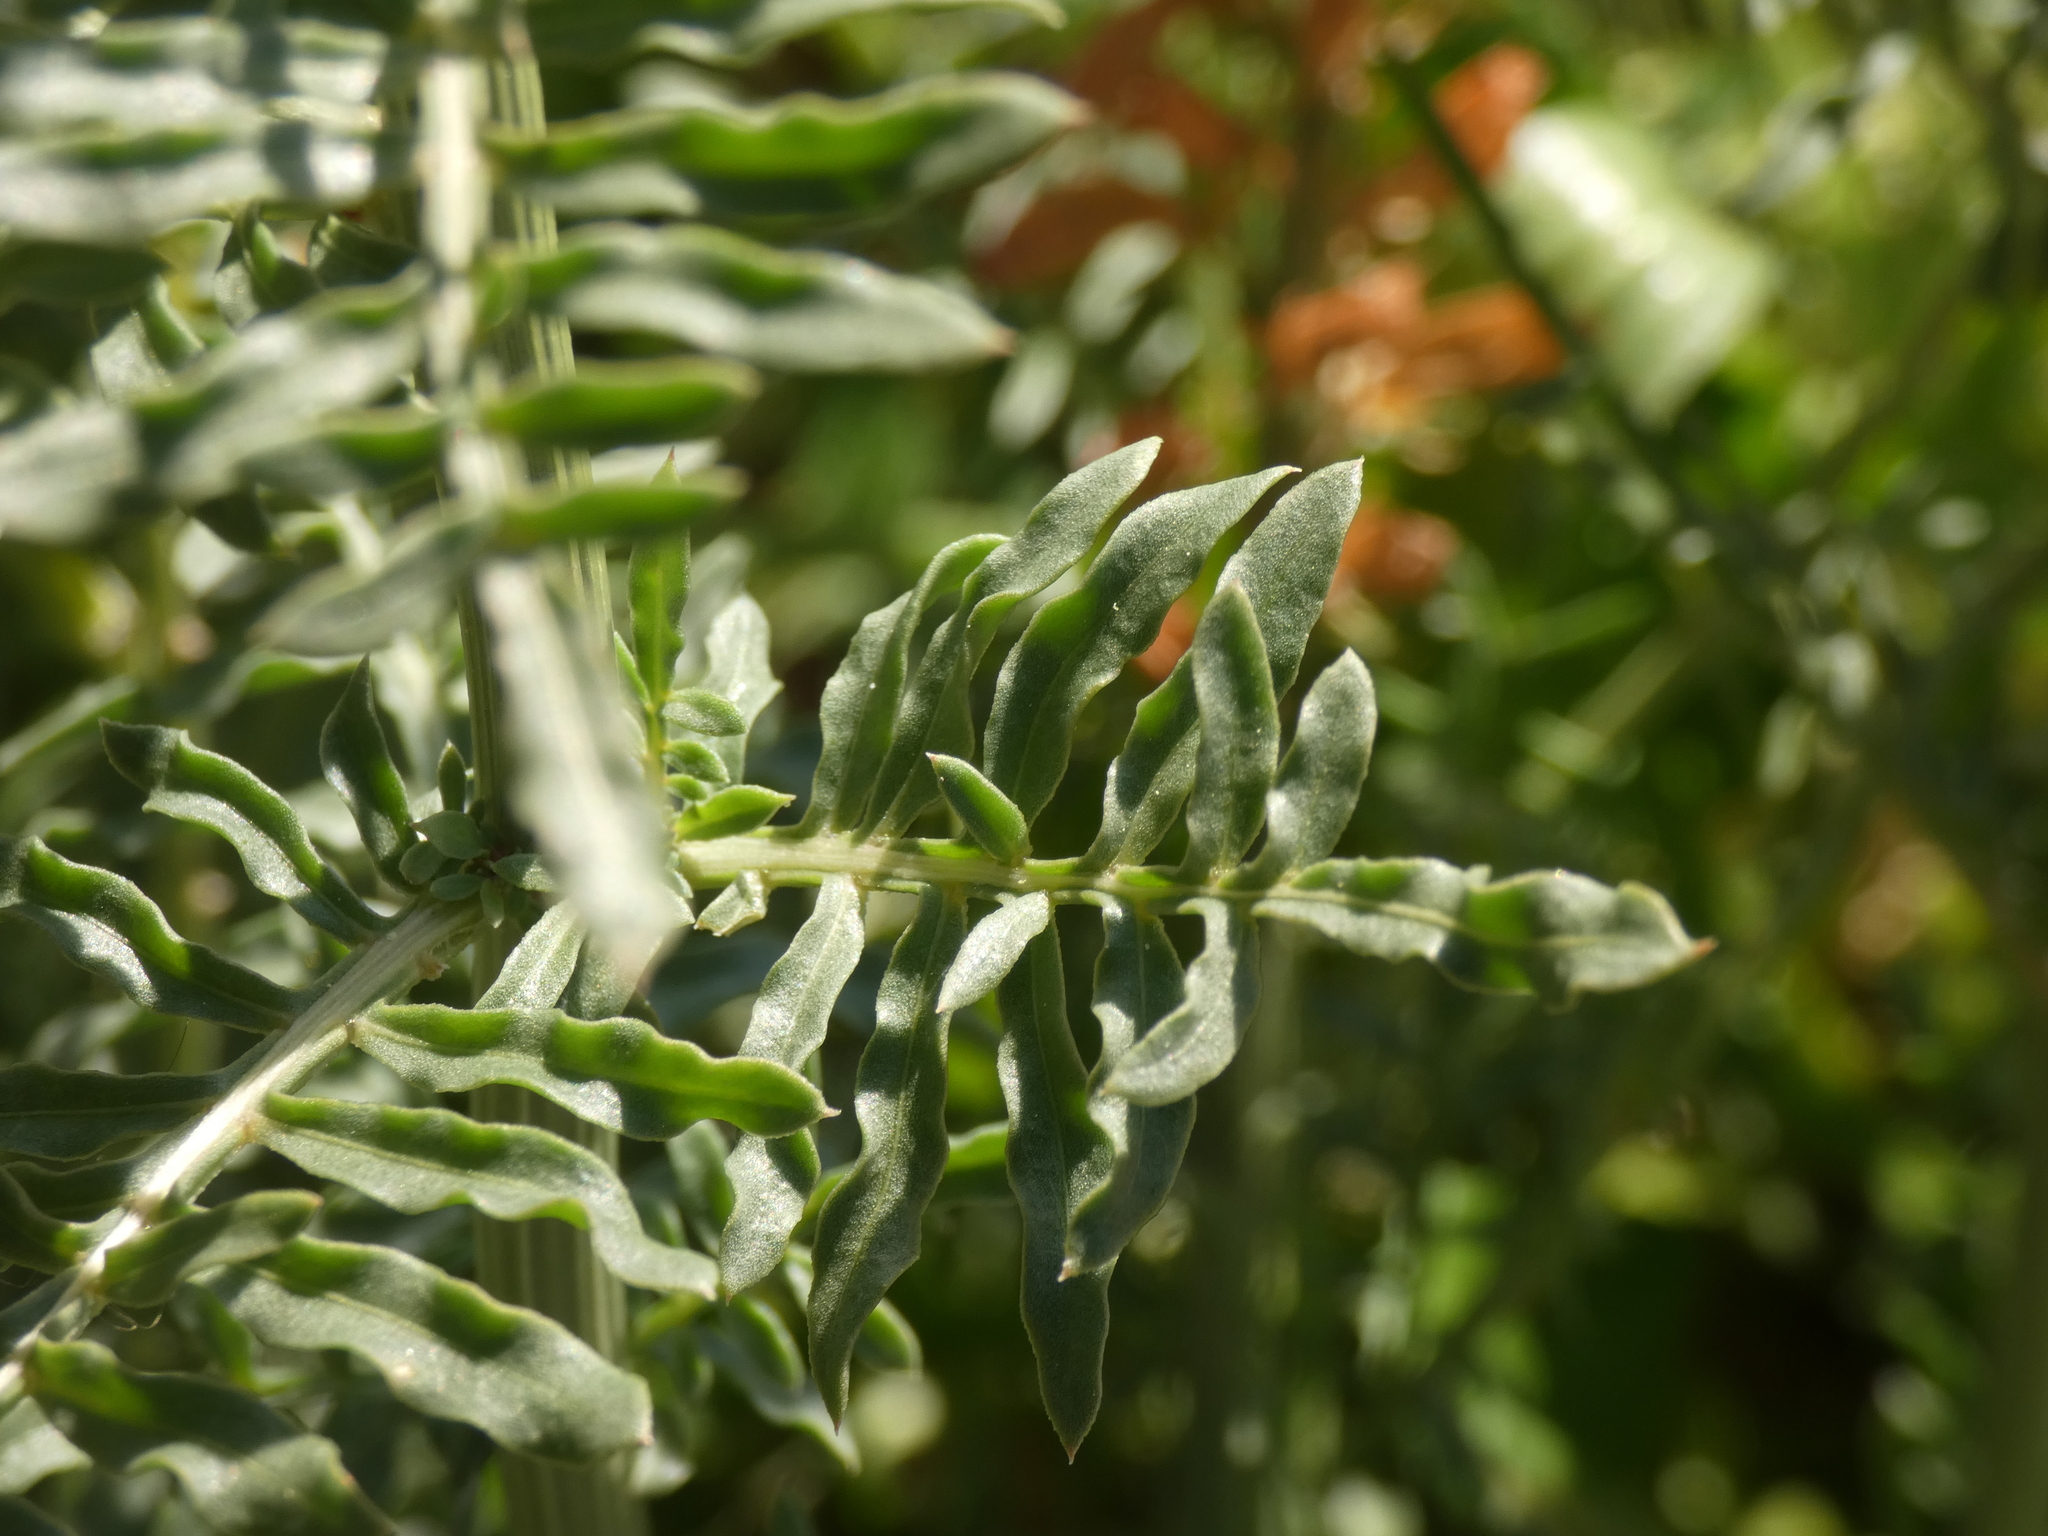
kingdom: Plantae
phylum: Tracheophyta
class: Magnoliopsida
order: Brassicales
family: Resedaceae
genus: Reseda
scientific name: Reseda alba
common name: White mignonette
